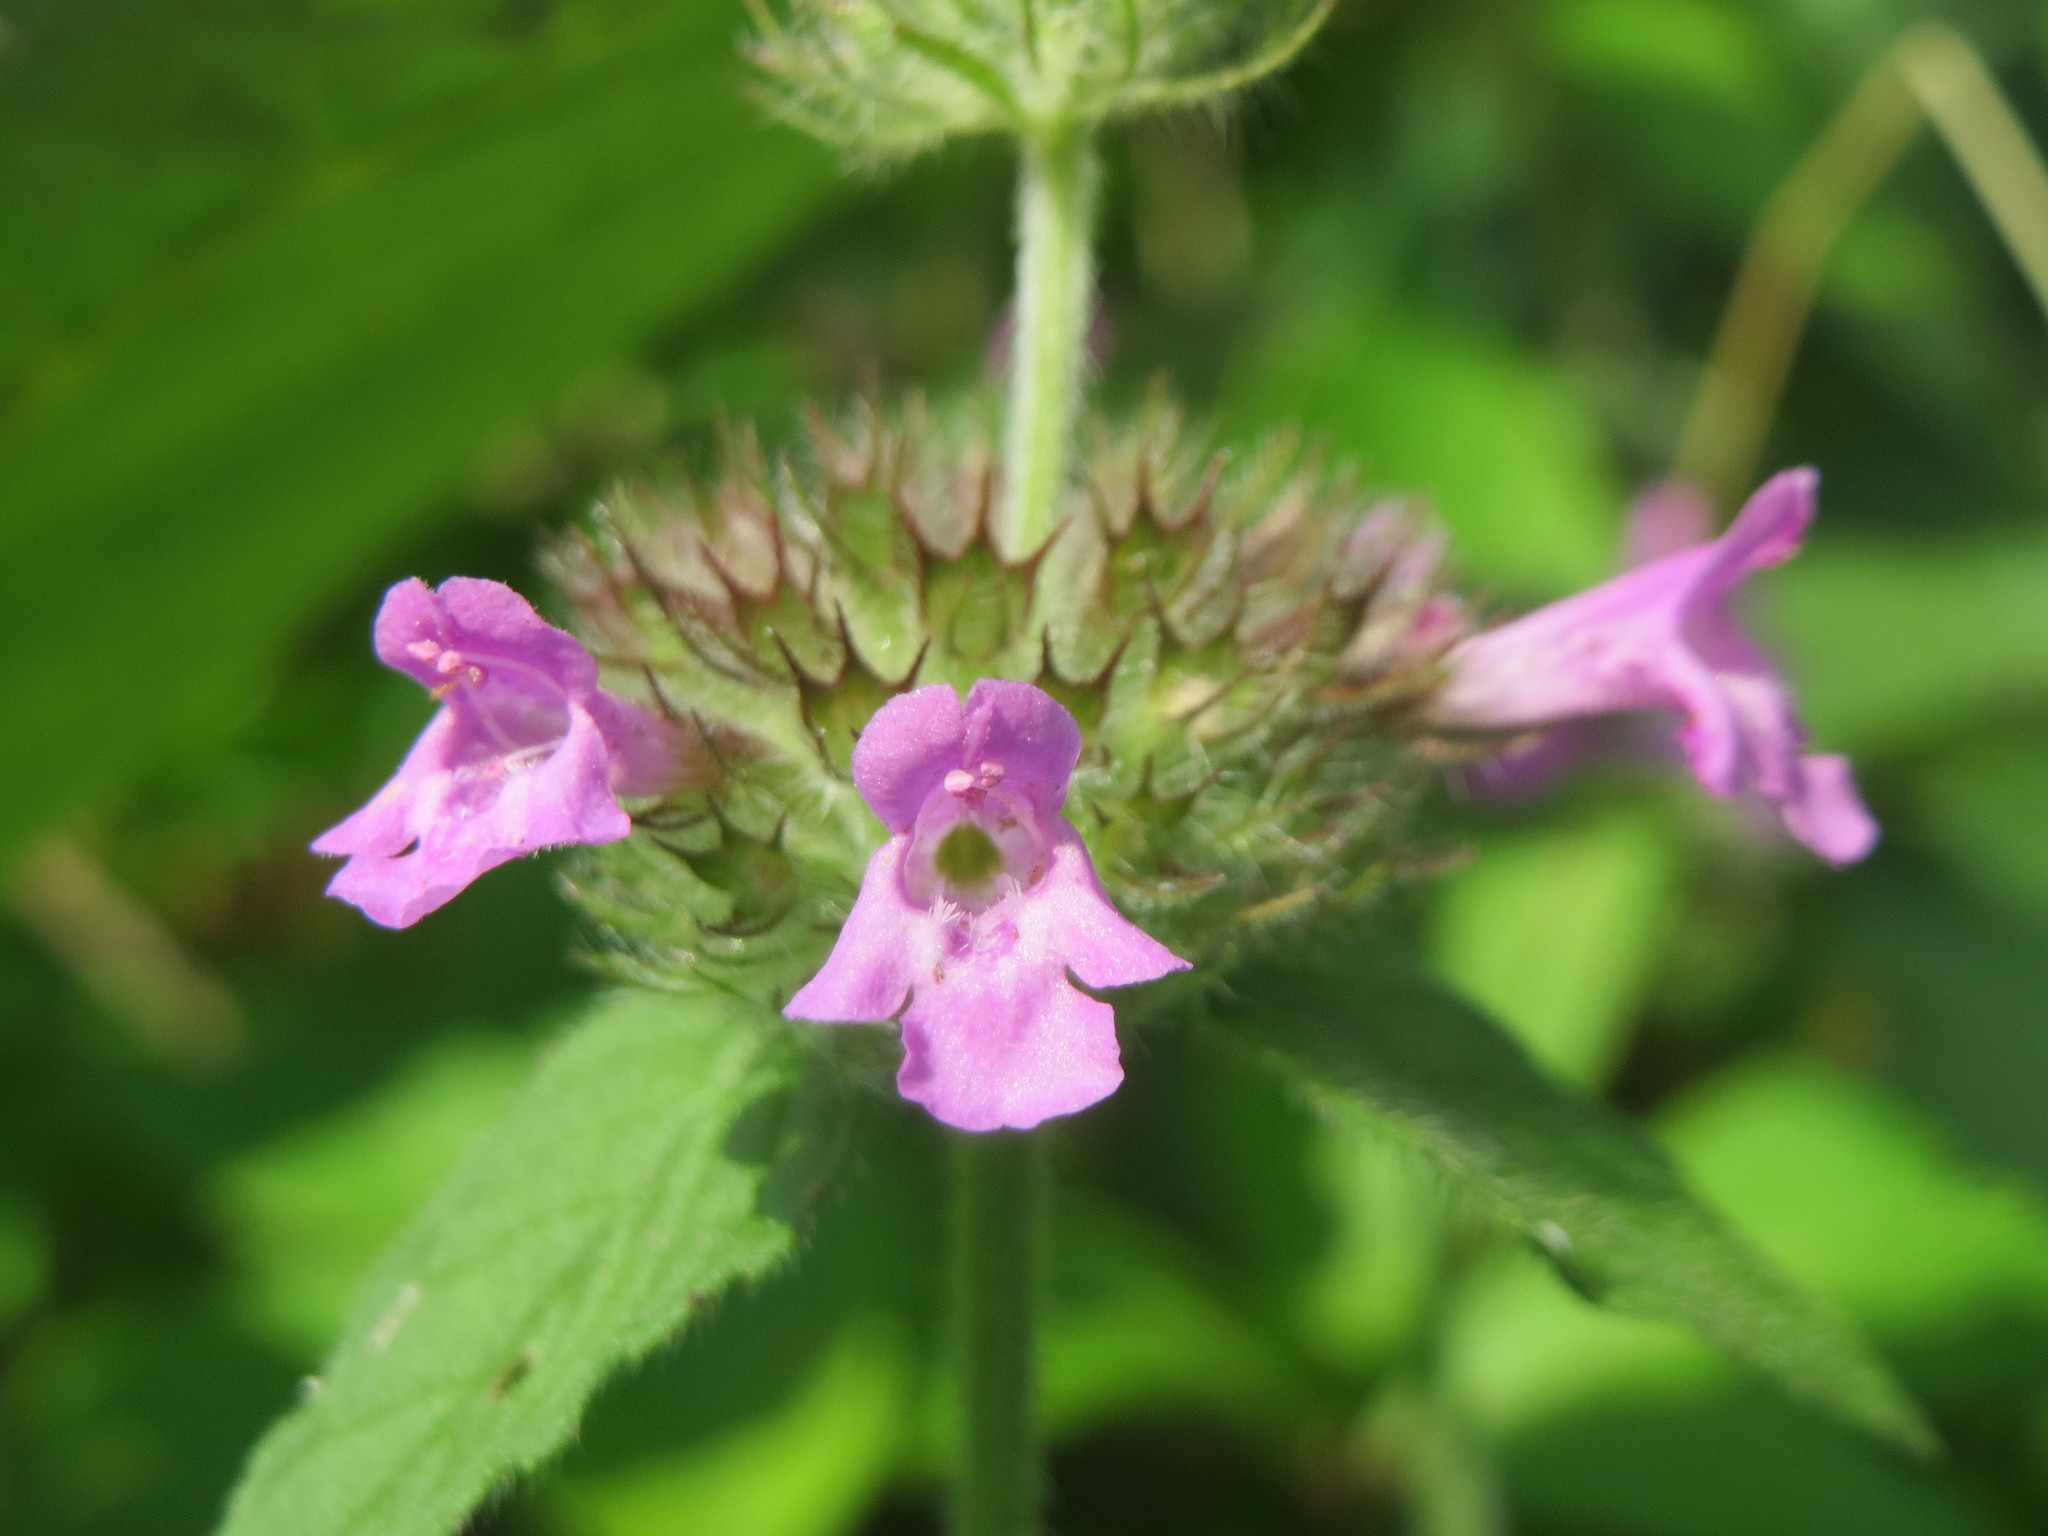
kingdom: Plantae
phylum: Tracheophyta
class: Magnoliopsida
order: Lamiales
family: Lamiaceae
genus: Clinopodium
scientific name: Clinopodium vulgare
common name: Wild basil
